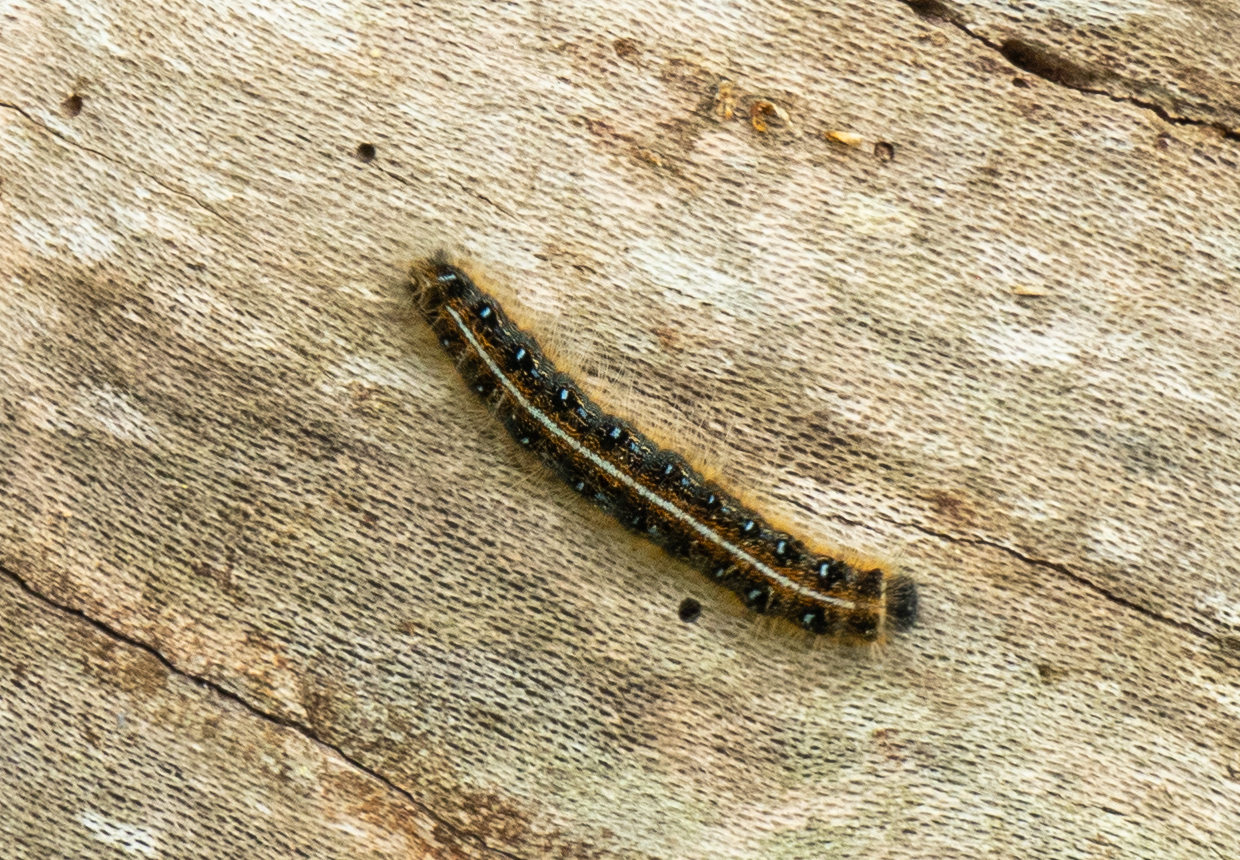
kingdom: Animalia
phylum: Arthropoda
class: Insecta
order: Lepidoptera
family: Lasiocampidae
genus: Malacosoma
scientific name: Malacosoma americana
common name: Eastern tent caterpillar moth
